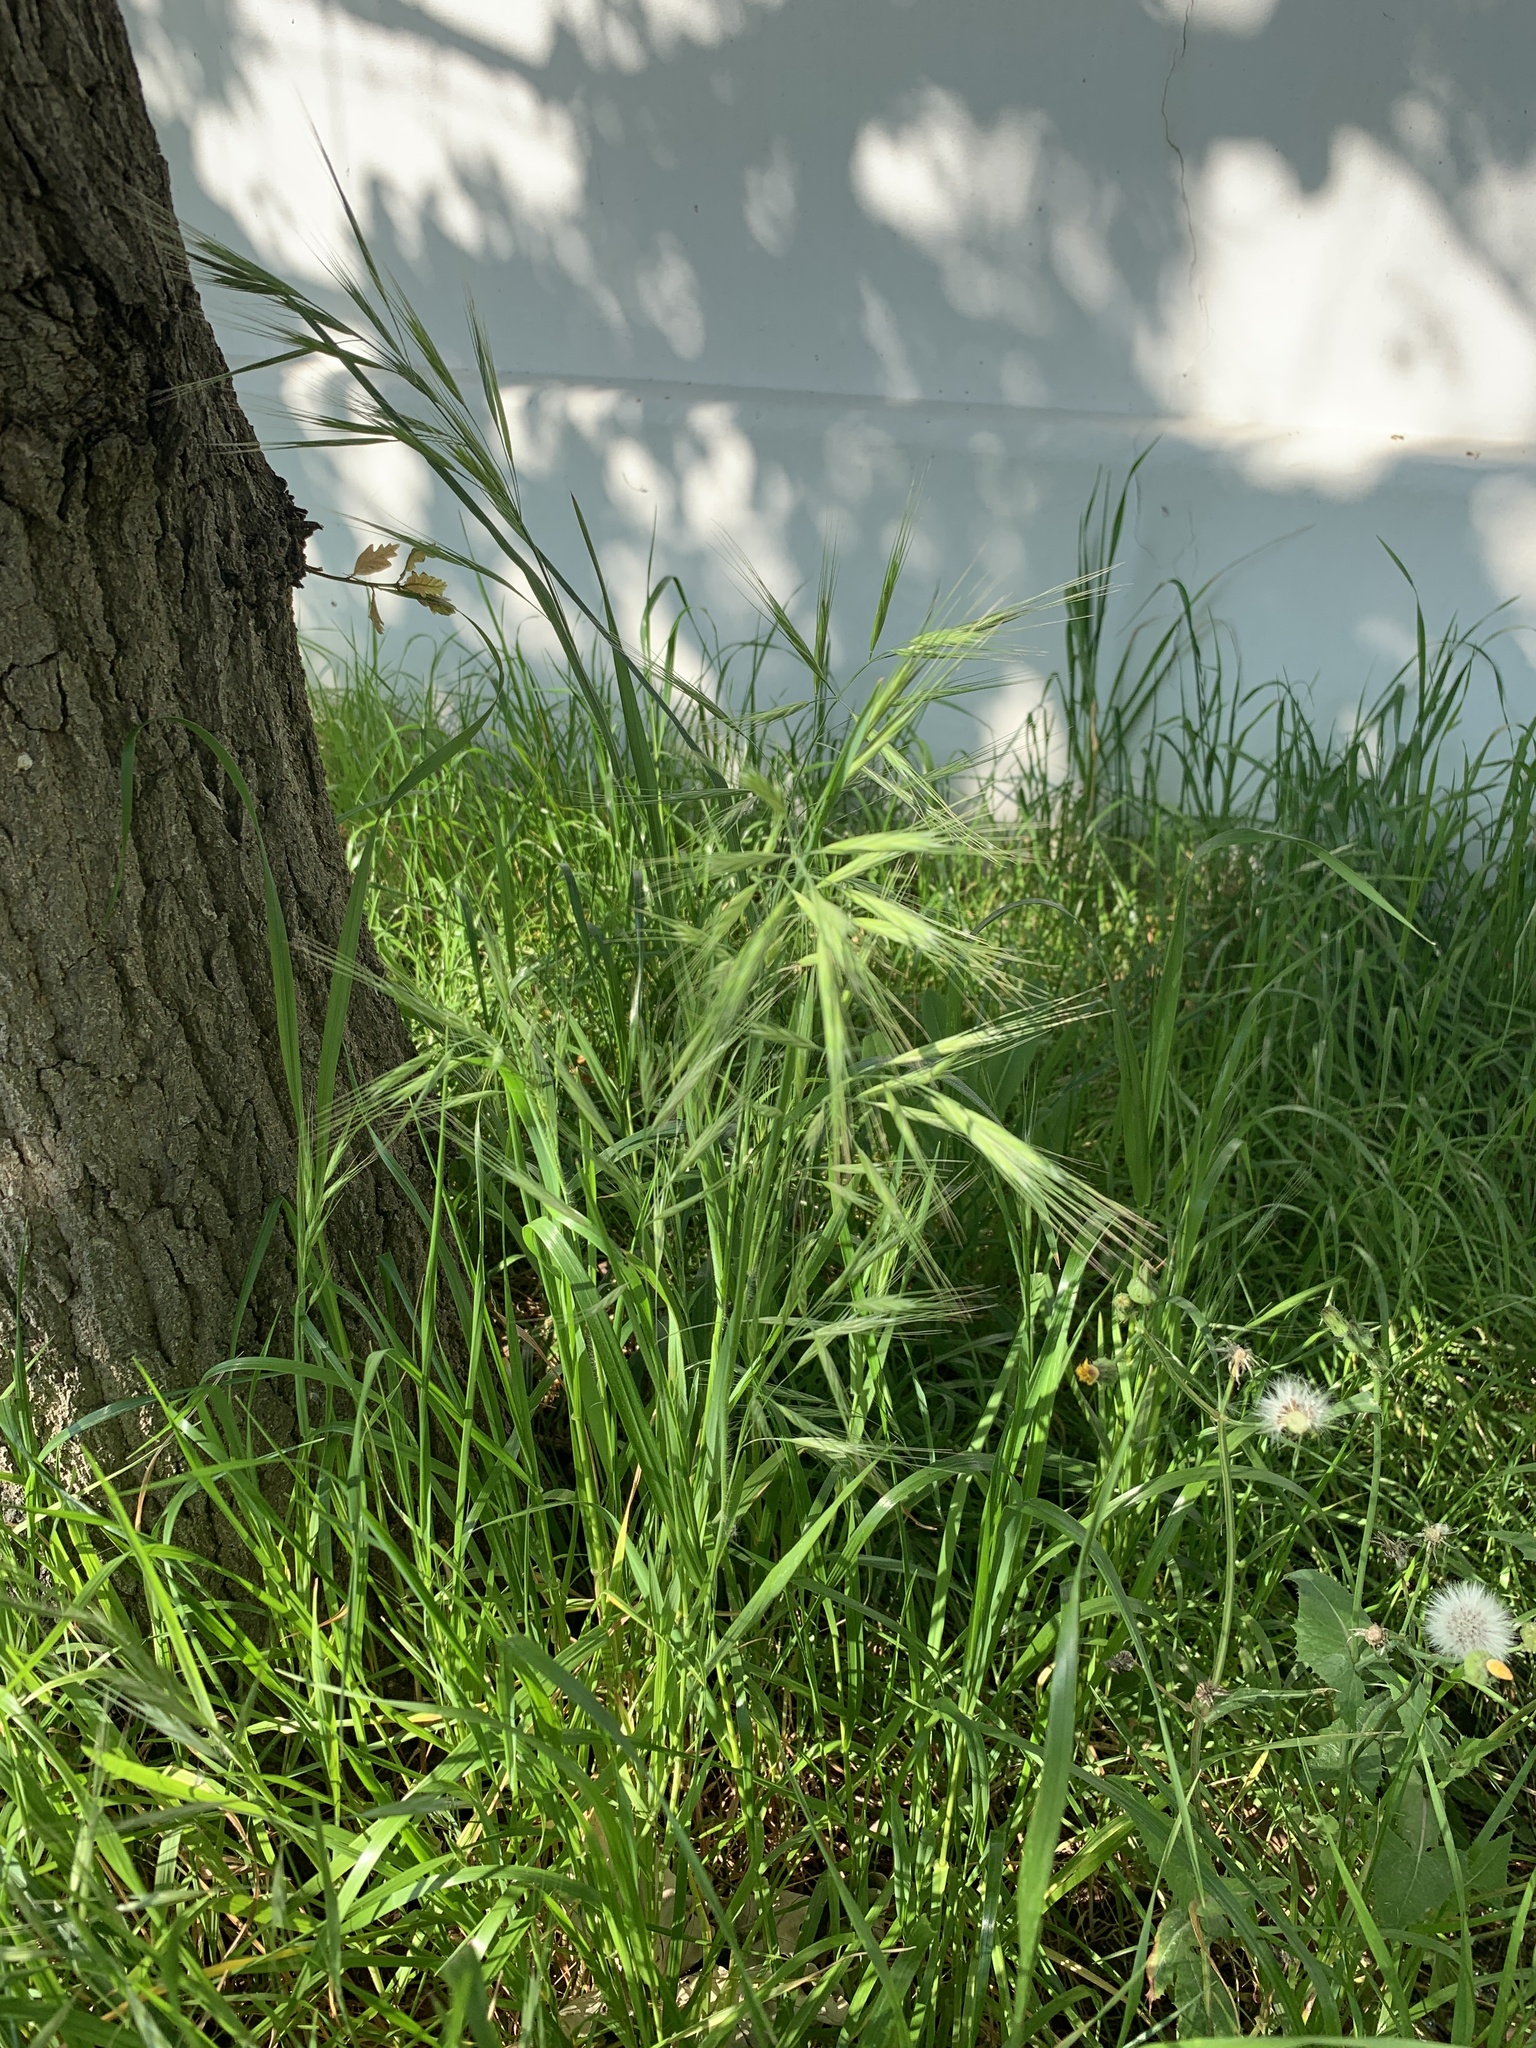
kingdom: Plantae
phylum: Tracheophyta
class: Liliopsida
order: Poales
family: Poaceae
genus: Bromus
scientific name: Bromus diandrus
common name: Ripgut brome
